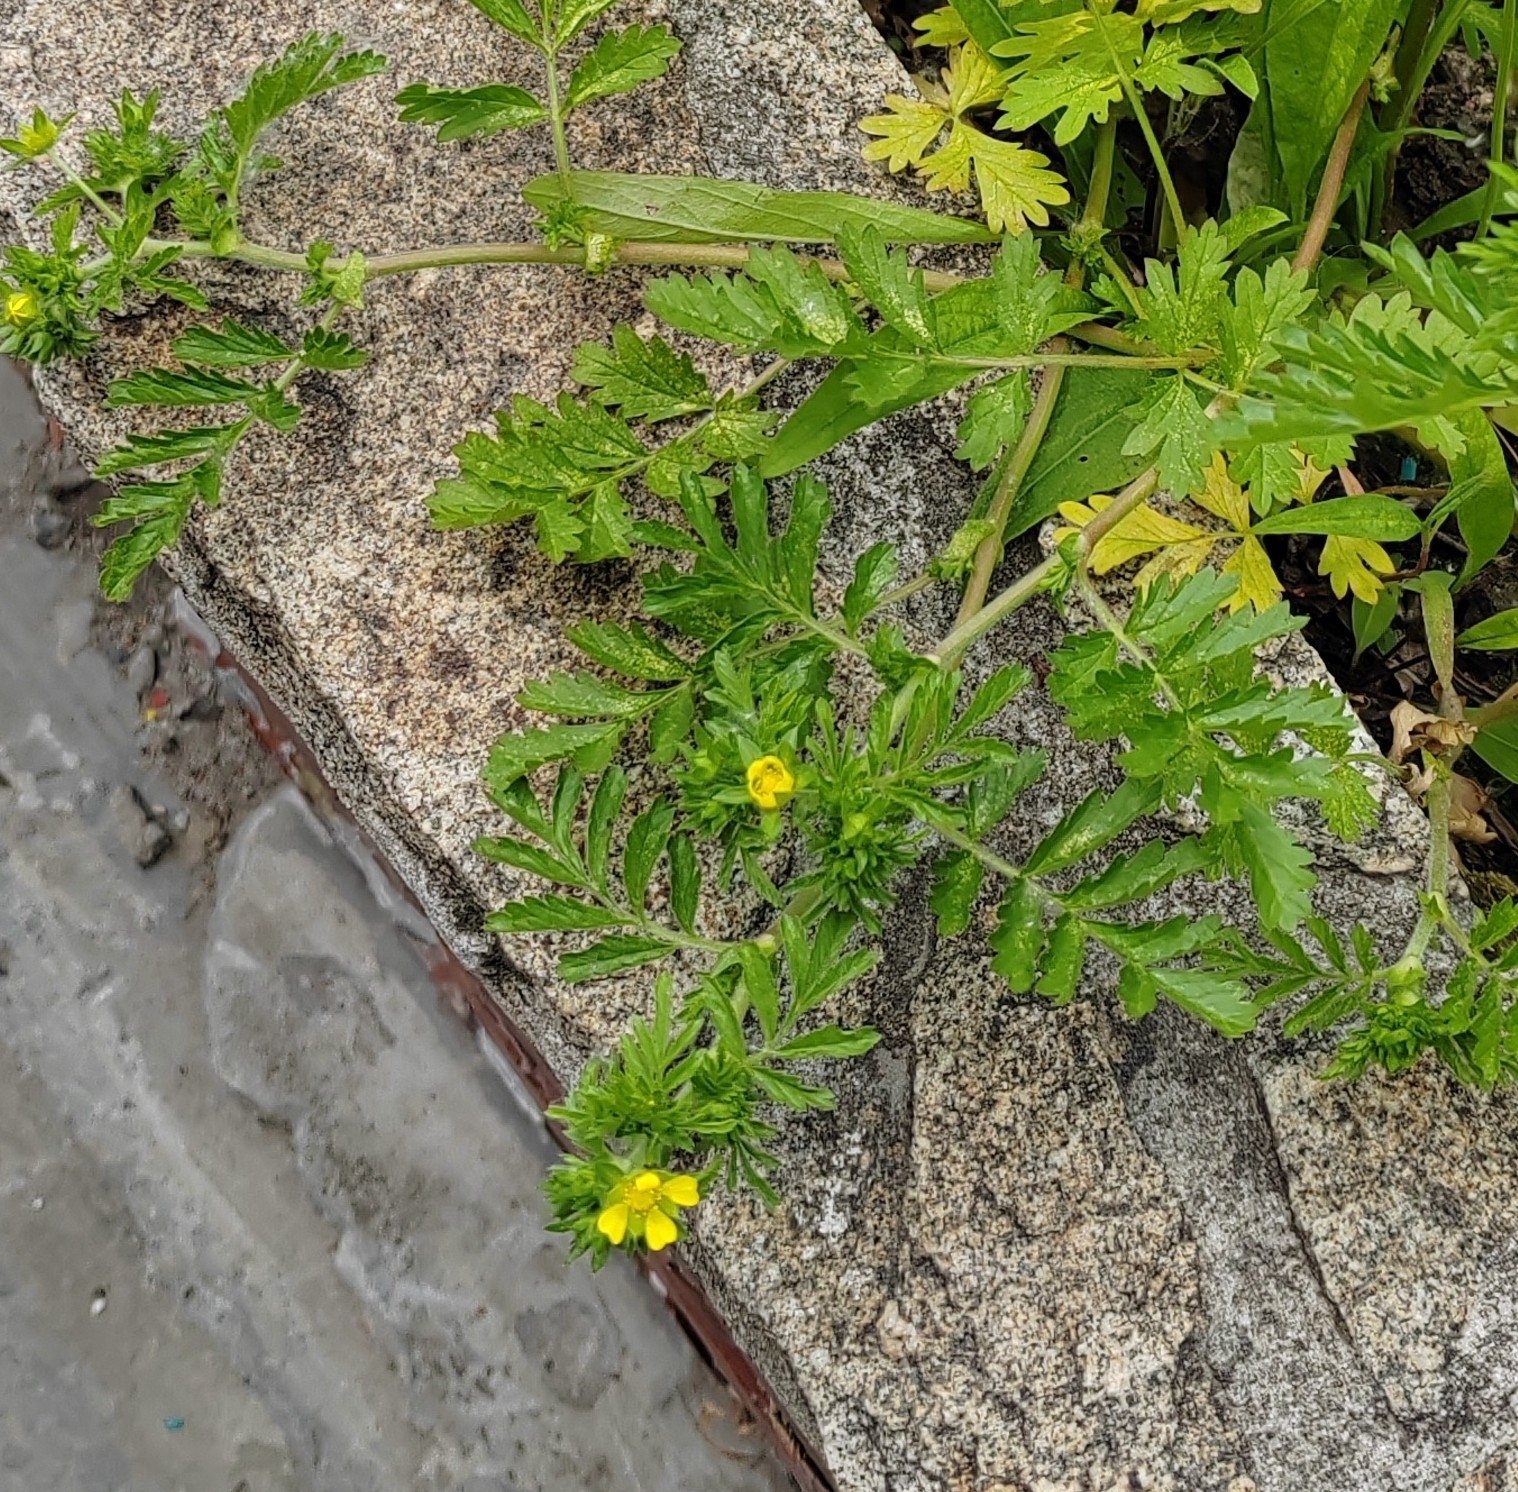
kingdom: Plantae
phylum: Tracheophyta
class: Magnoliopsida
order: Rosales
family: Rosaceae
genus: Potentilla
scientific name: Potentilla supina
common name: Prostrate cinquefoil
